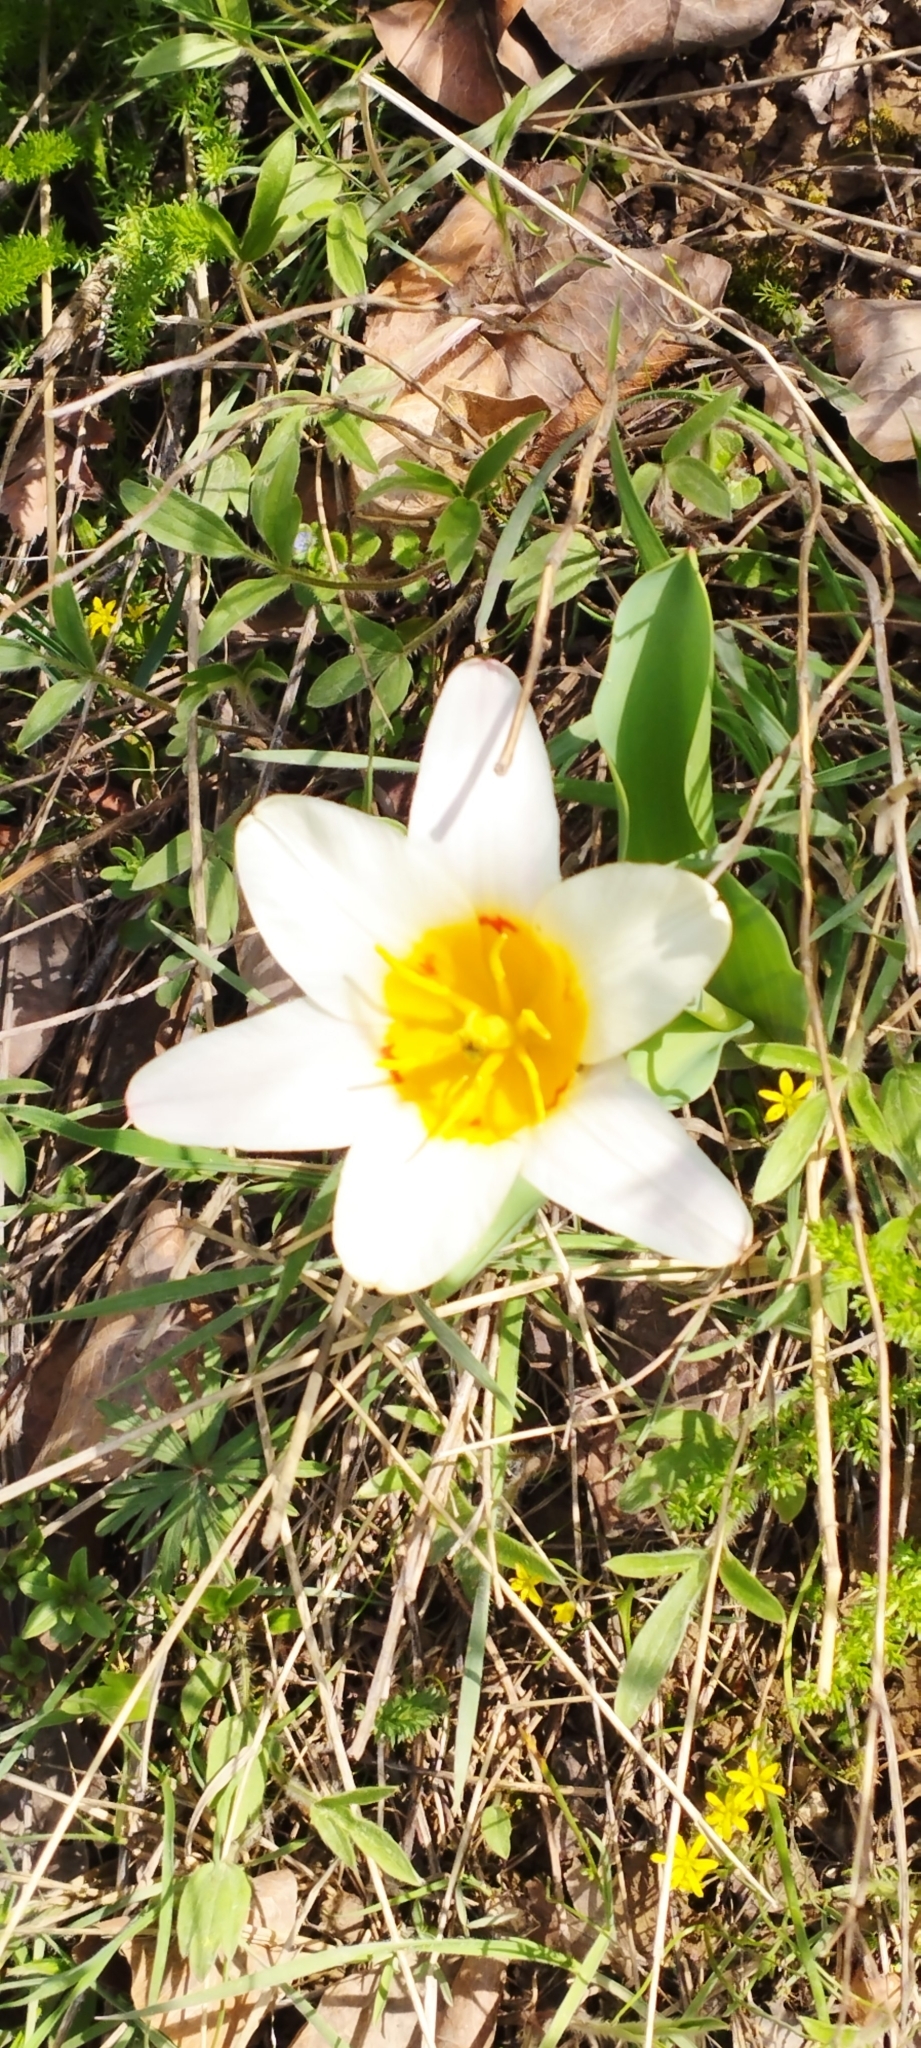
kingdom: Plantae
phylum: Tracheophyta
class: Liliopsida
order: Liliales
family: Liliaceae
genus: Tulipa
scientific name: Tulipa kaufmanniana
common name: Water-lily tulip
